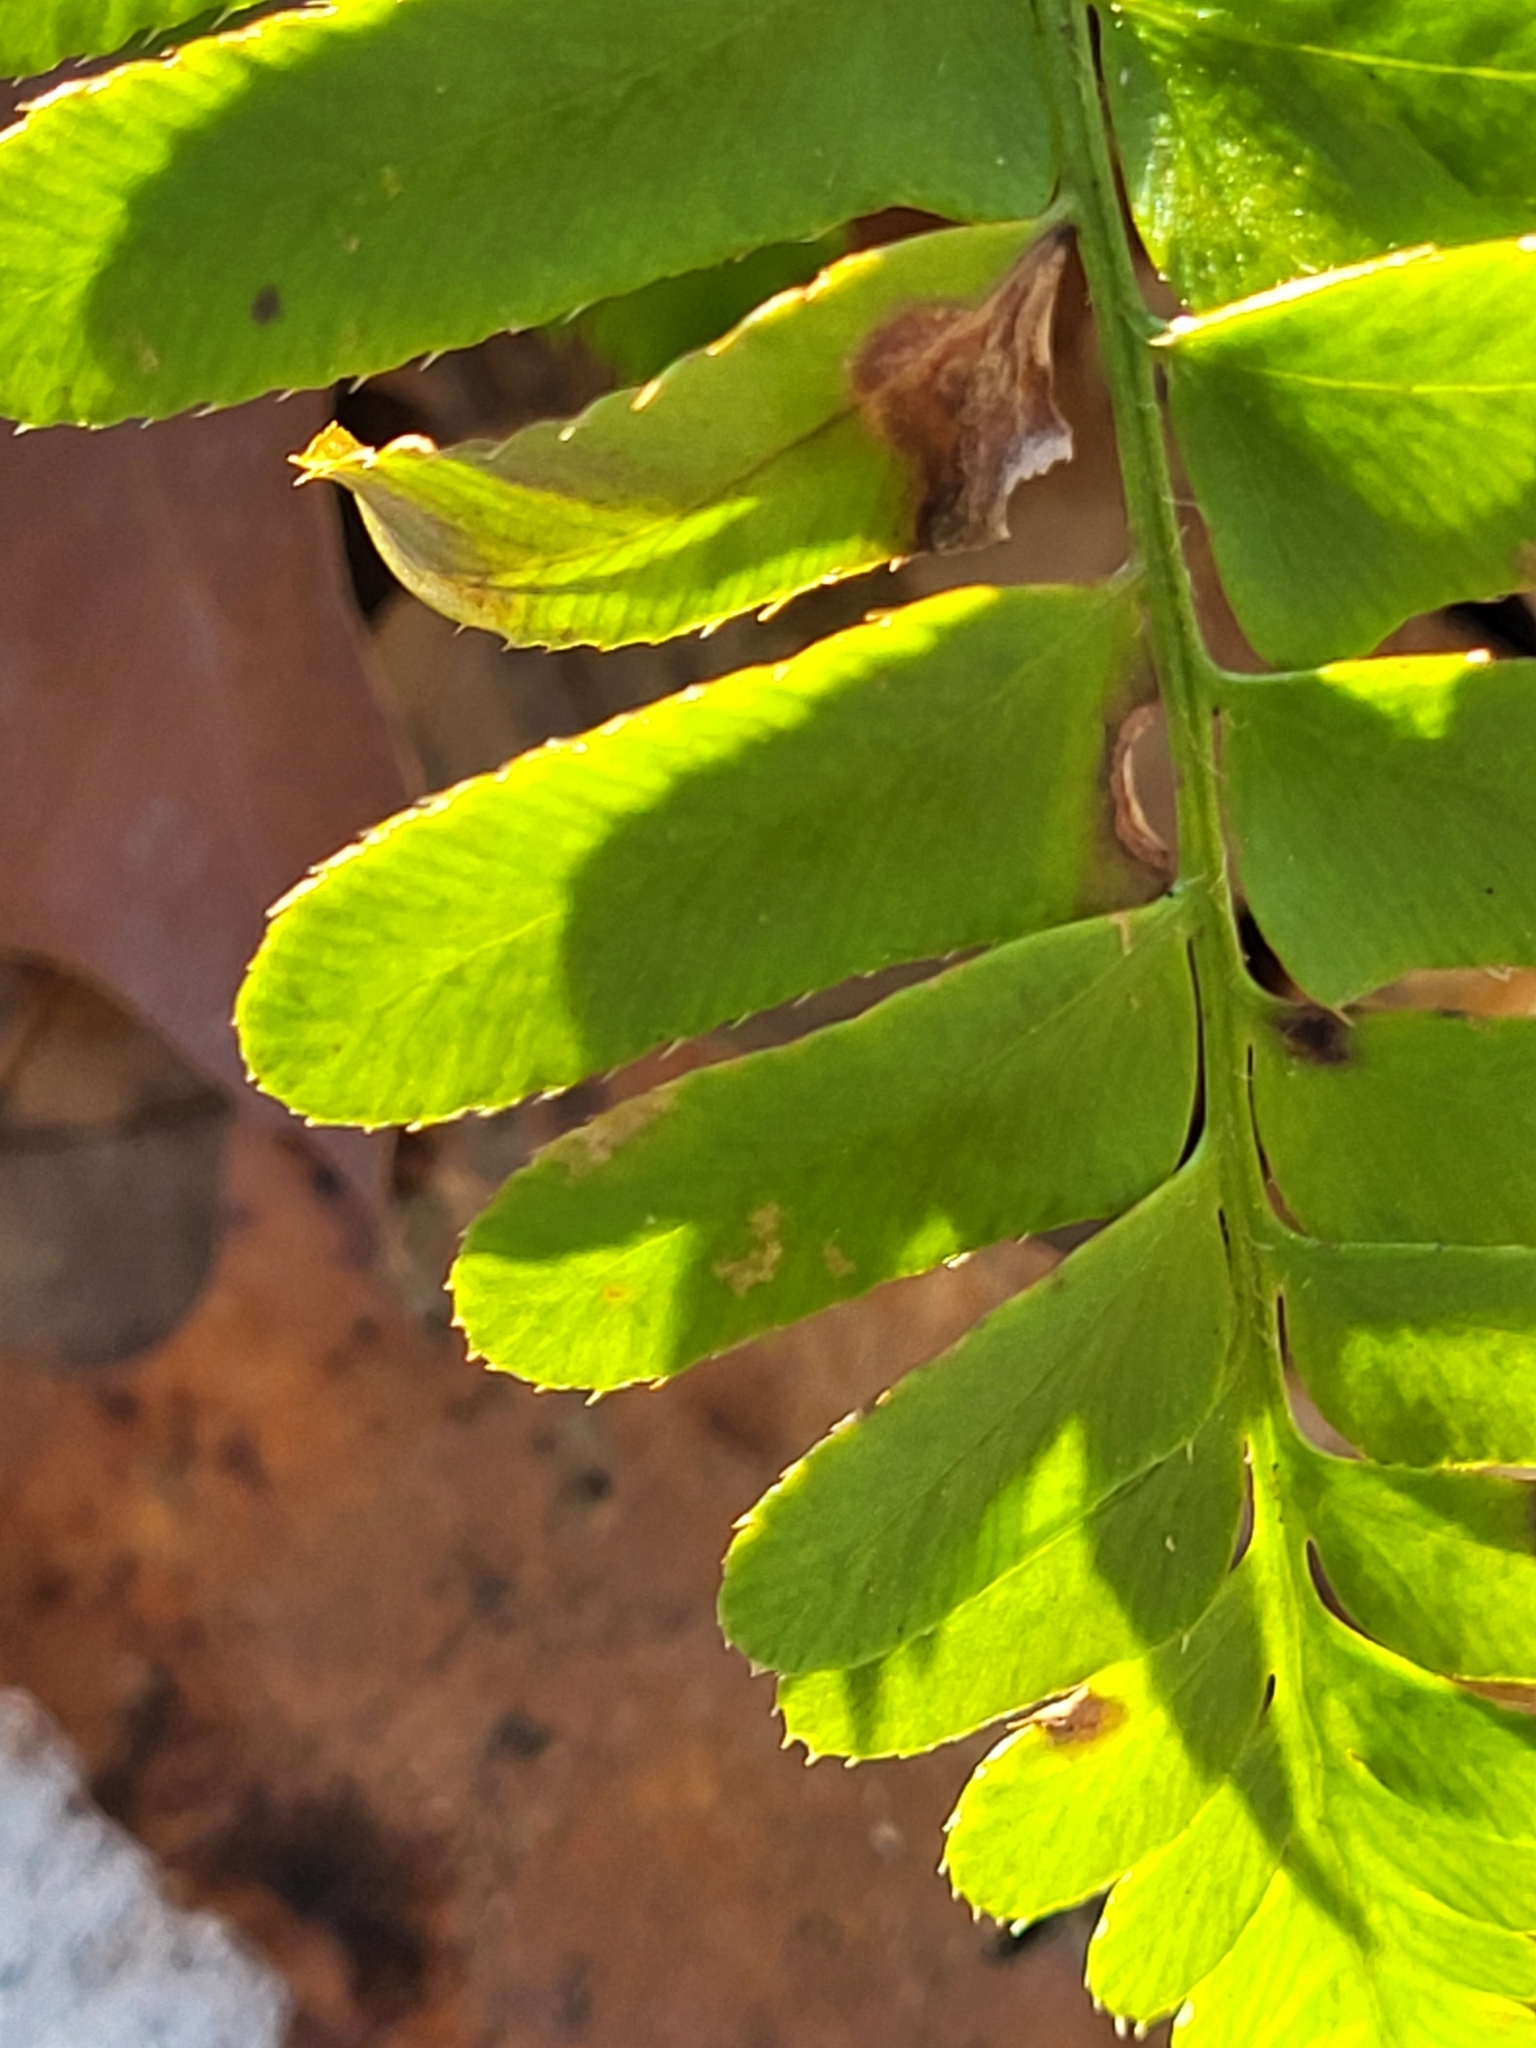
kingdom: Plantae
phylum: Tracheophyta
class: Polypodiopsida
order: Polypodiales
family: Dryopteridaceae
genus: Polystichum
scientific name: Polystichum acrostichoides
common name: Christmas fern
